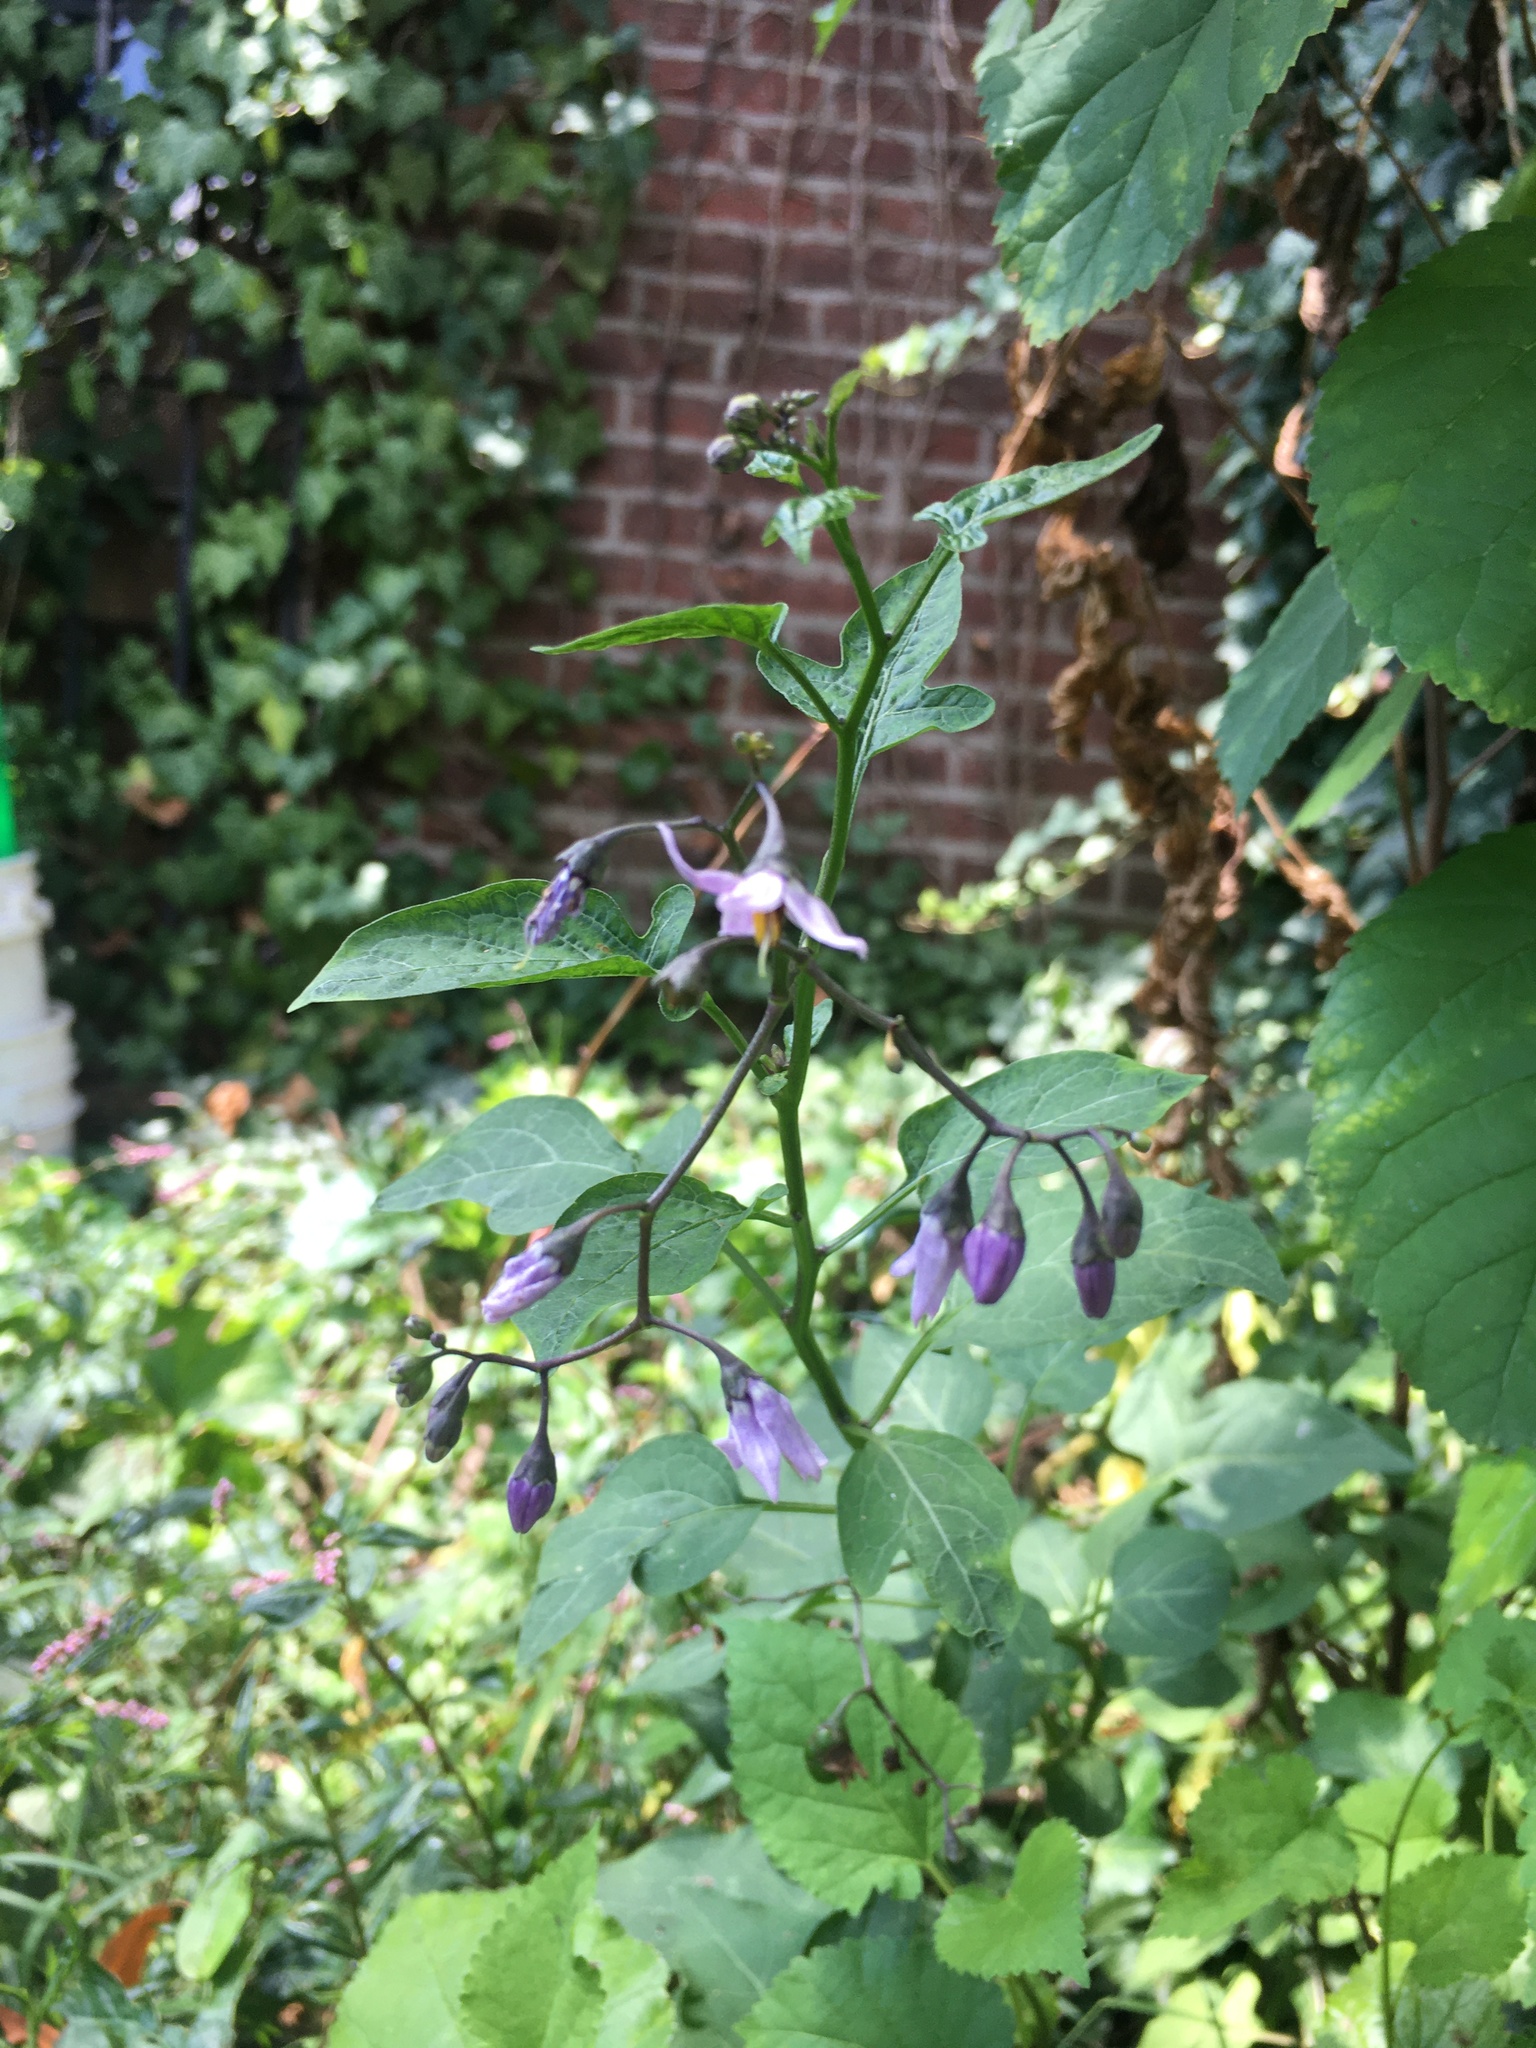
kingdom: Plantae
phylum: Tracheophyta
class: Magnoliopsida
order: Solanales
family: Solanaceae
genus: Solanum
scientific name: Solanum dulcamara
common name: Climbing nightshade
